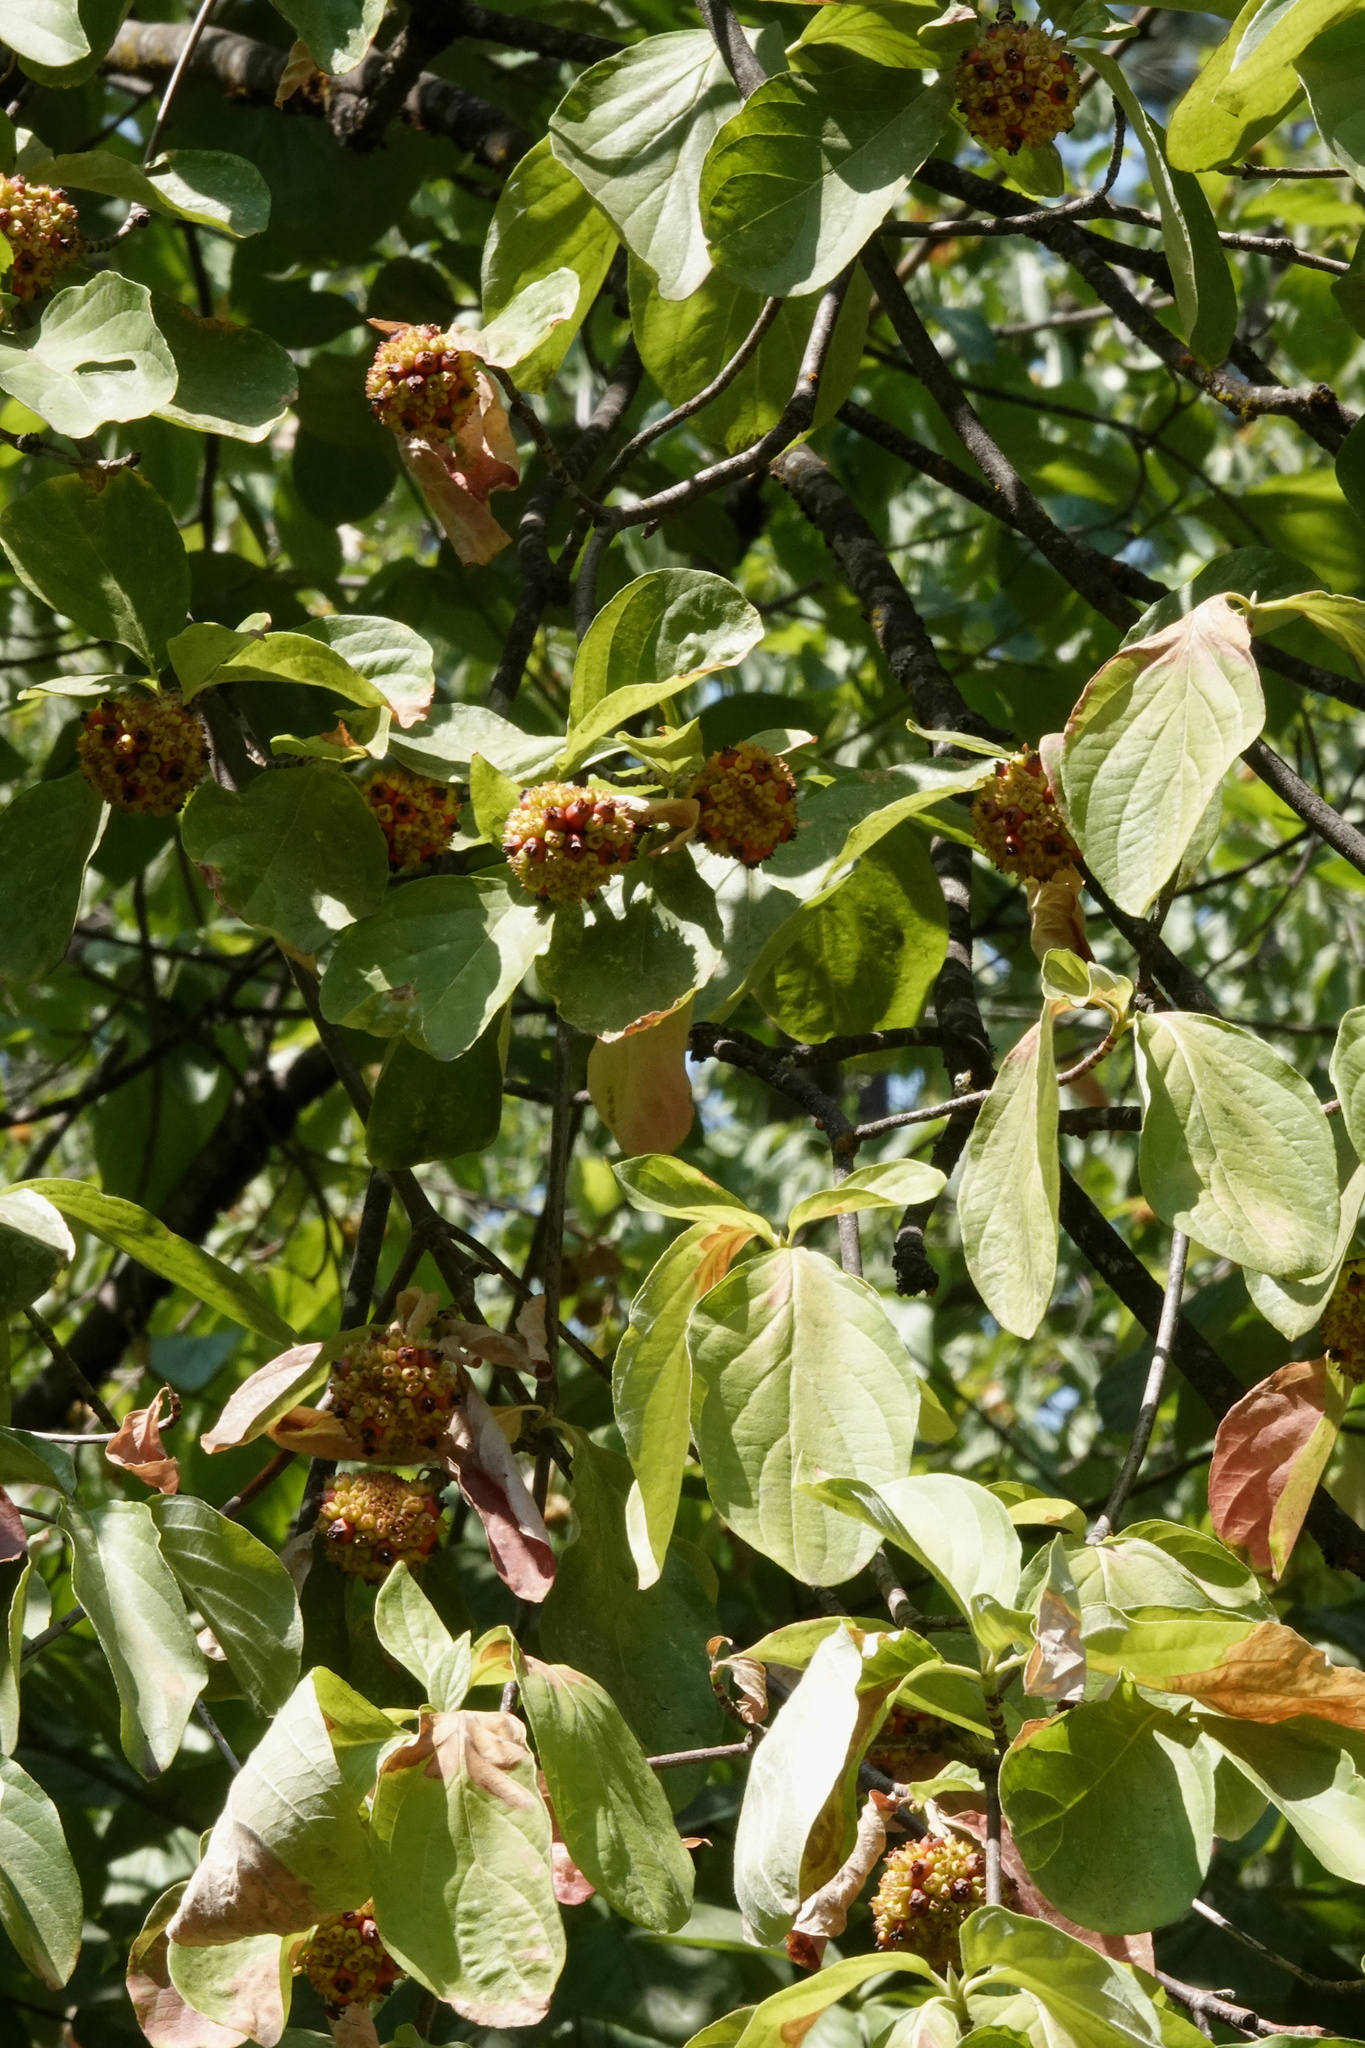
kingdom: Plantae
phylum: Tracheophyta
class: Magnoliopsida
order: Cornales
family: Cornaceae
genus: Cornus
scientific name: Cornus nuttallii
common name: Pacific dogwood
